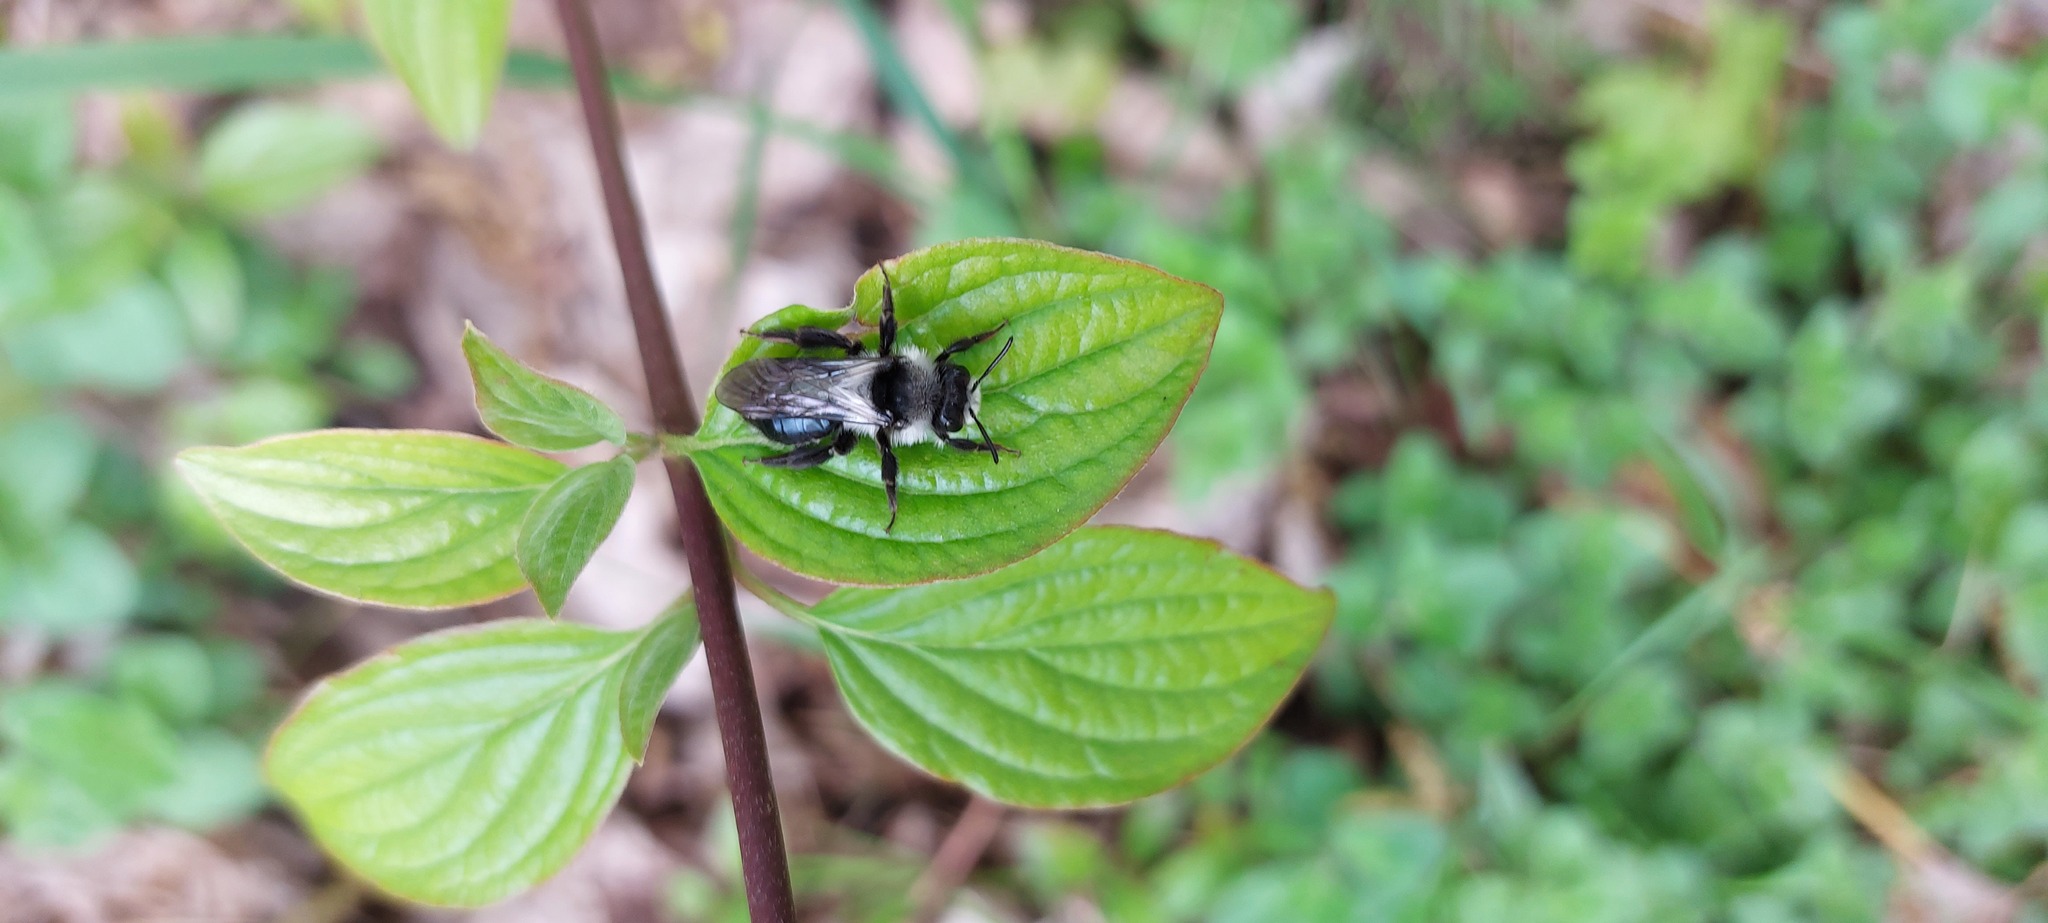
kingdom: Animalia
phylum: Arthropoda
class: Insecta
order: Hymenoptera
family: Andrenidae
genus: Andrena
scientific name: Andrena cineraria
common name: Ashy mining bee
